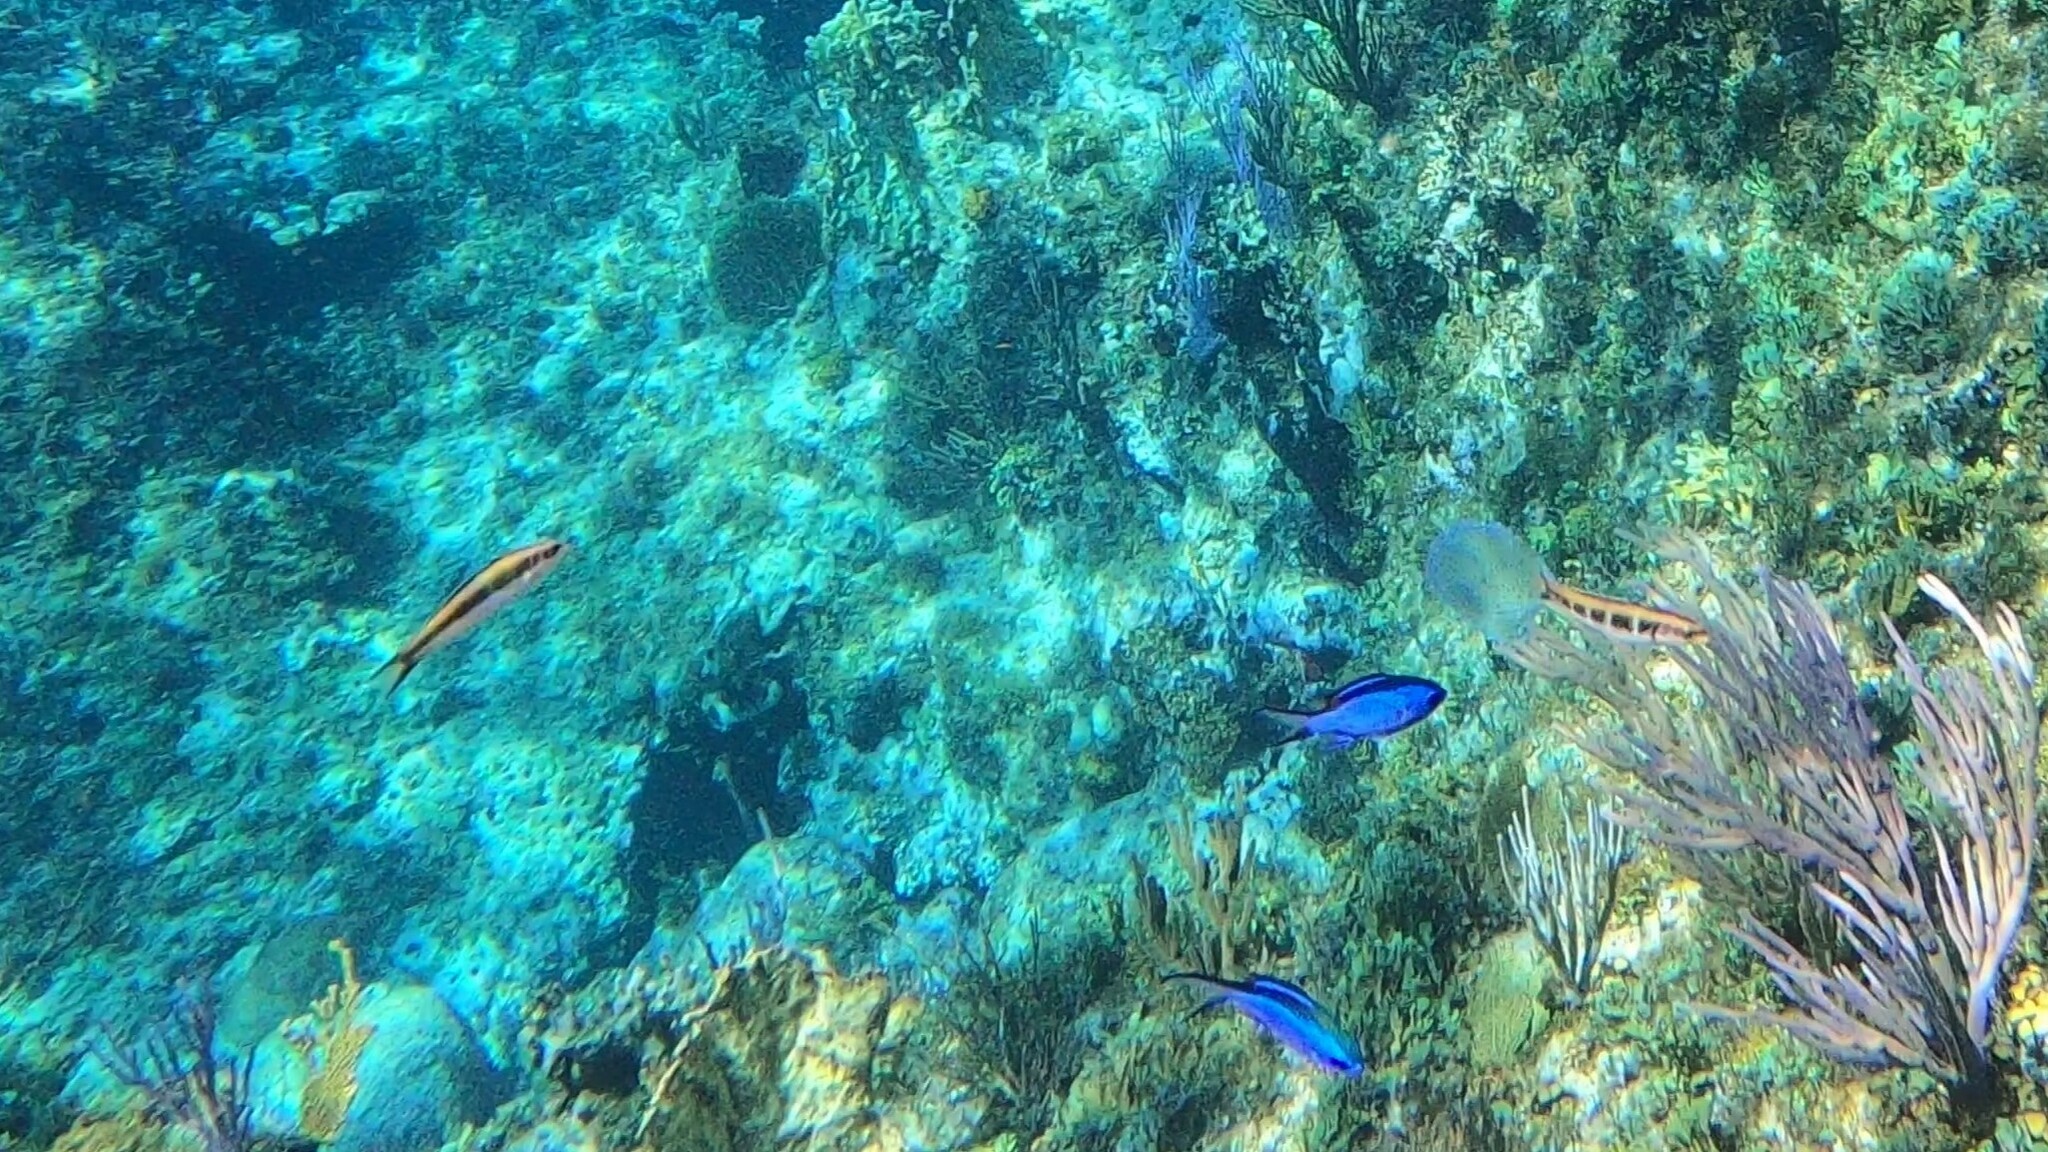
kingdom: Animalia
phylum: Chordata
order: Perciformes
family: Labridae
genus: Thalassoma
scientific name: Thalassoma bifasciatum
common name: Bluehead wrasse
